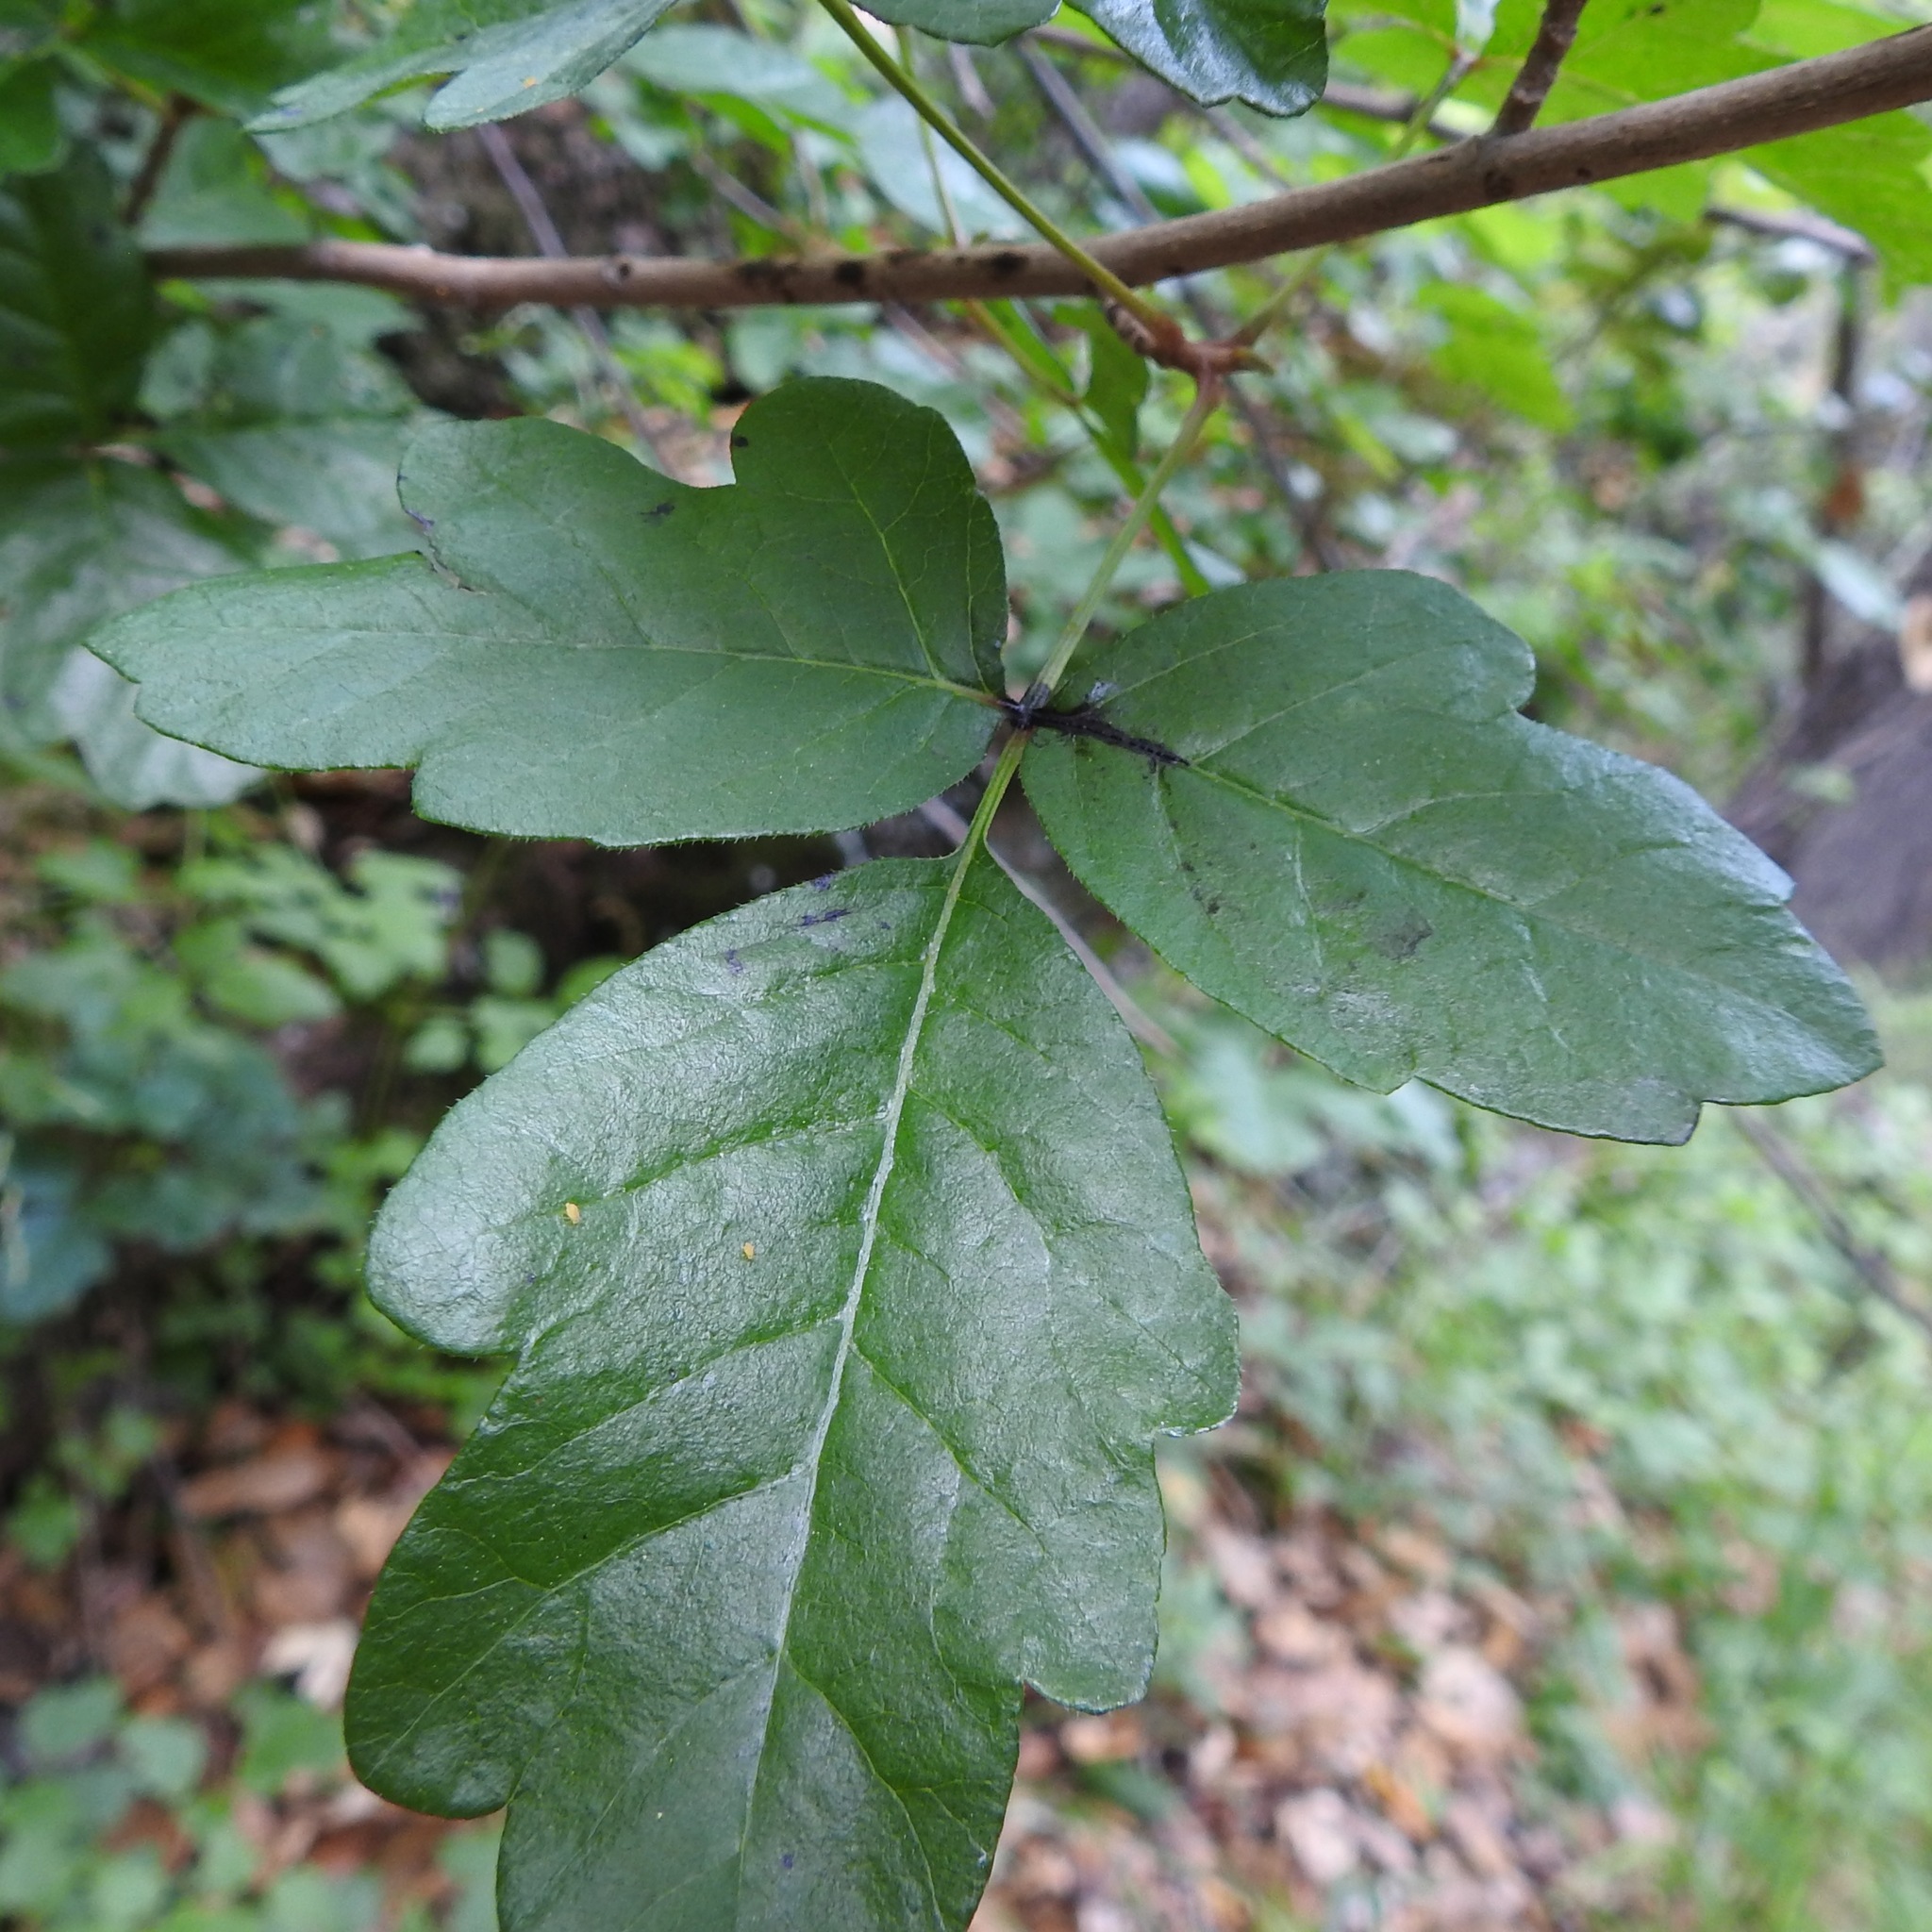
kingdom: Plantae
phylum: Tracheophyta
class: Magnoliopsida
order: Sapindales
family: Anacardiaceae
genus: Toxicodendron
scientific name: Toxicodendron diversilobum
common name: Pacific poison-oak
